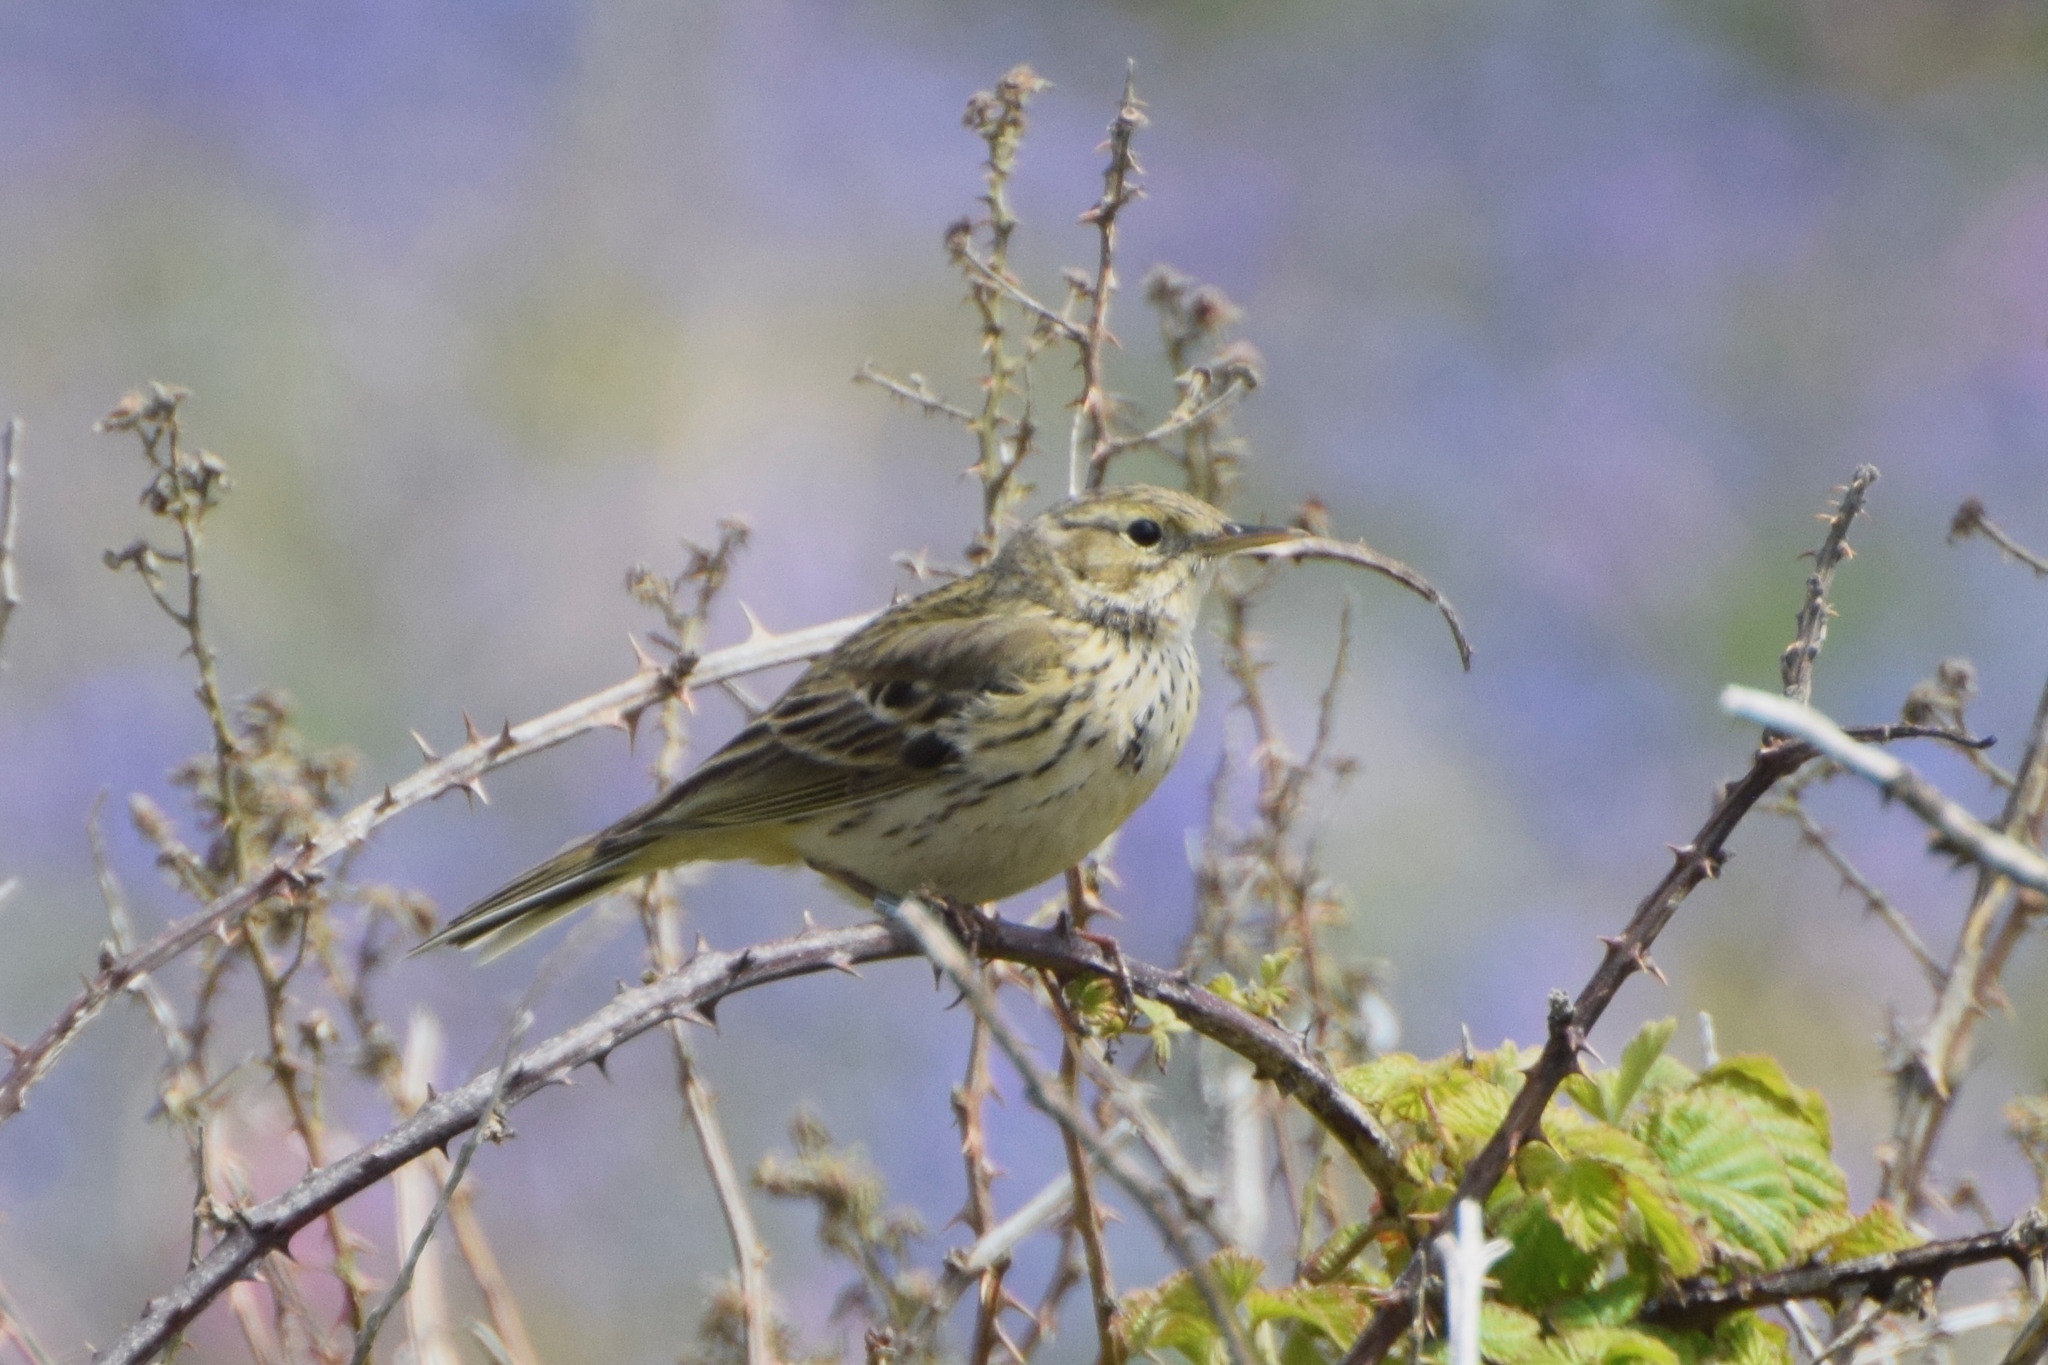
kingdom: Animalia
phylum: Chordata
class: Aves
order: Passeriformes
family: Motacillidae
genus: Anthus
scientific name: Anthus pratensis
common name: Meadow pipit
